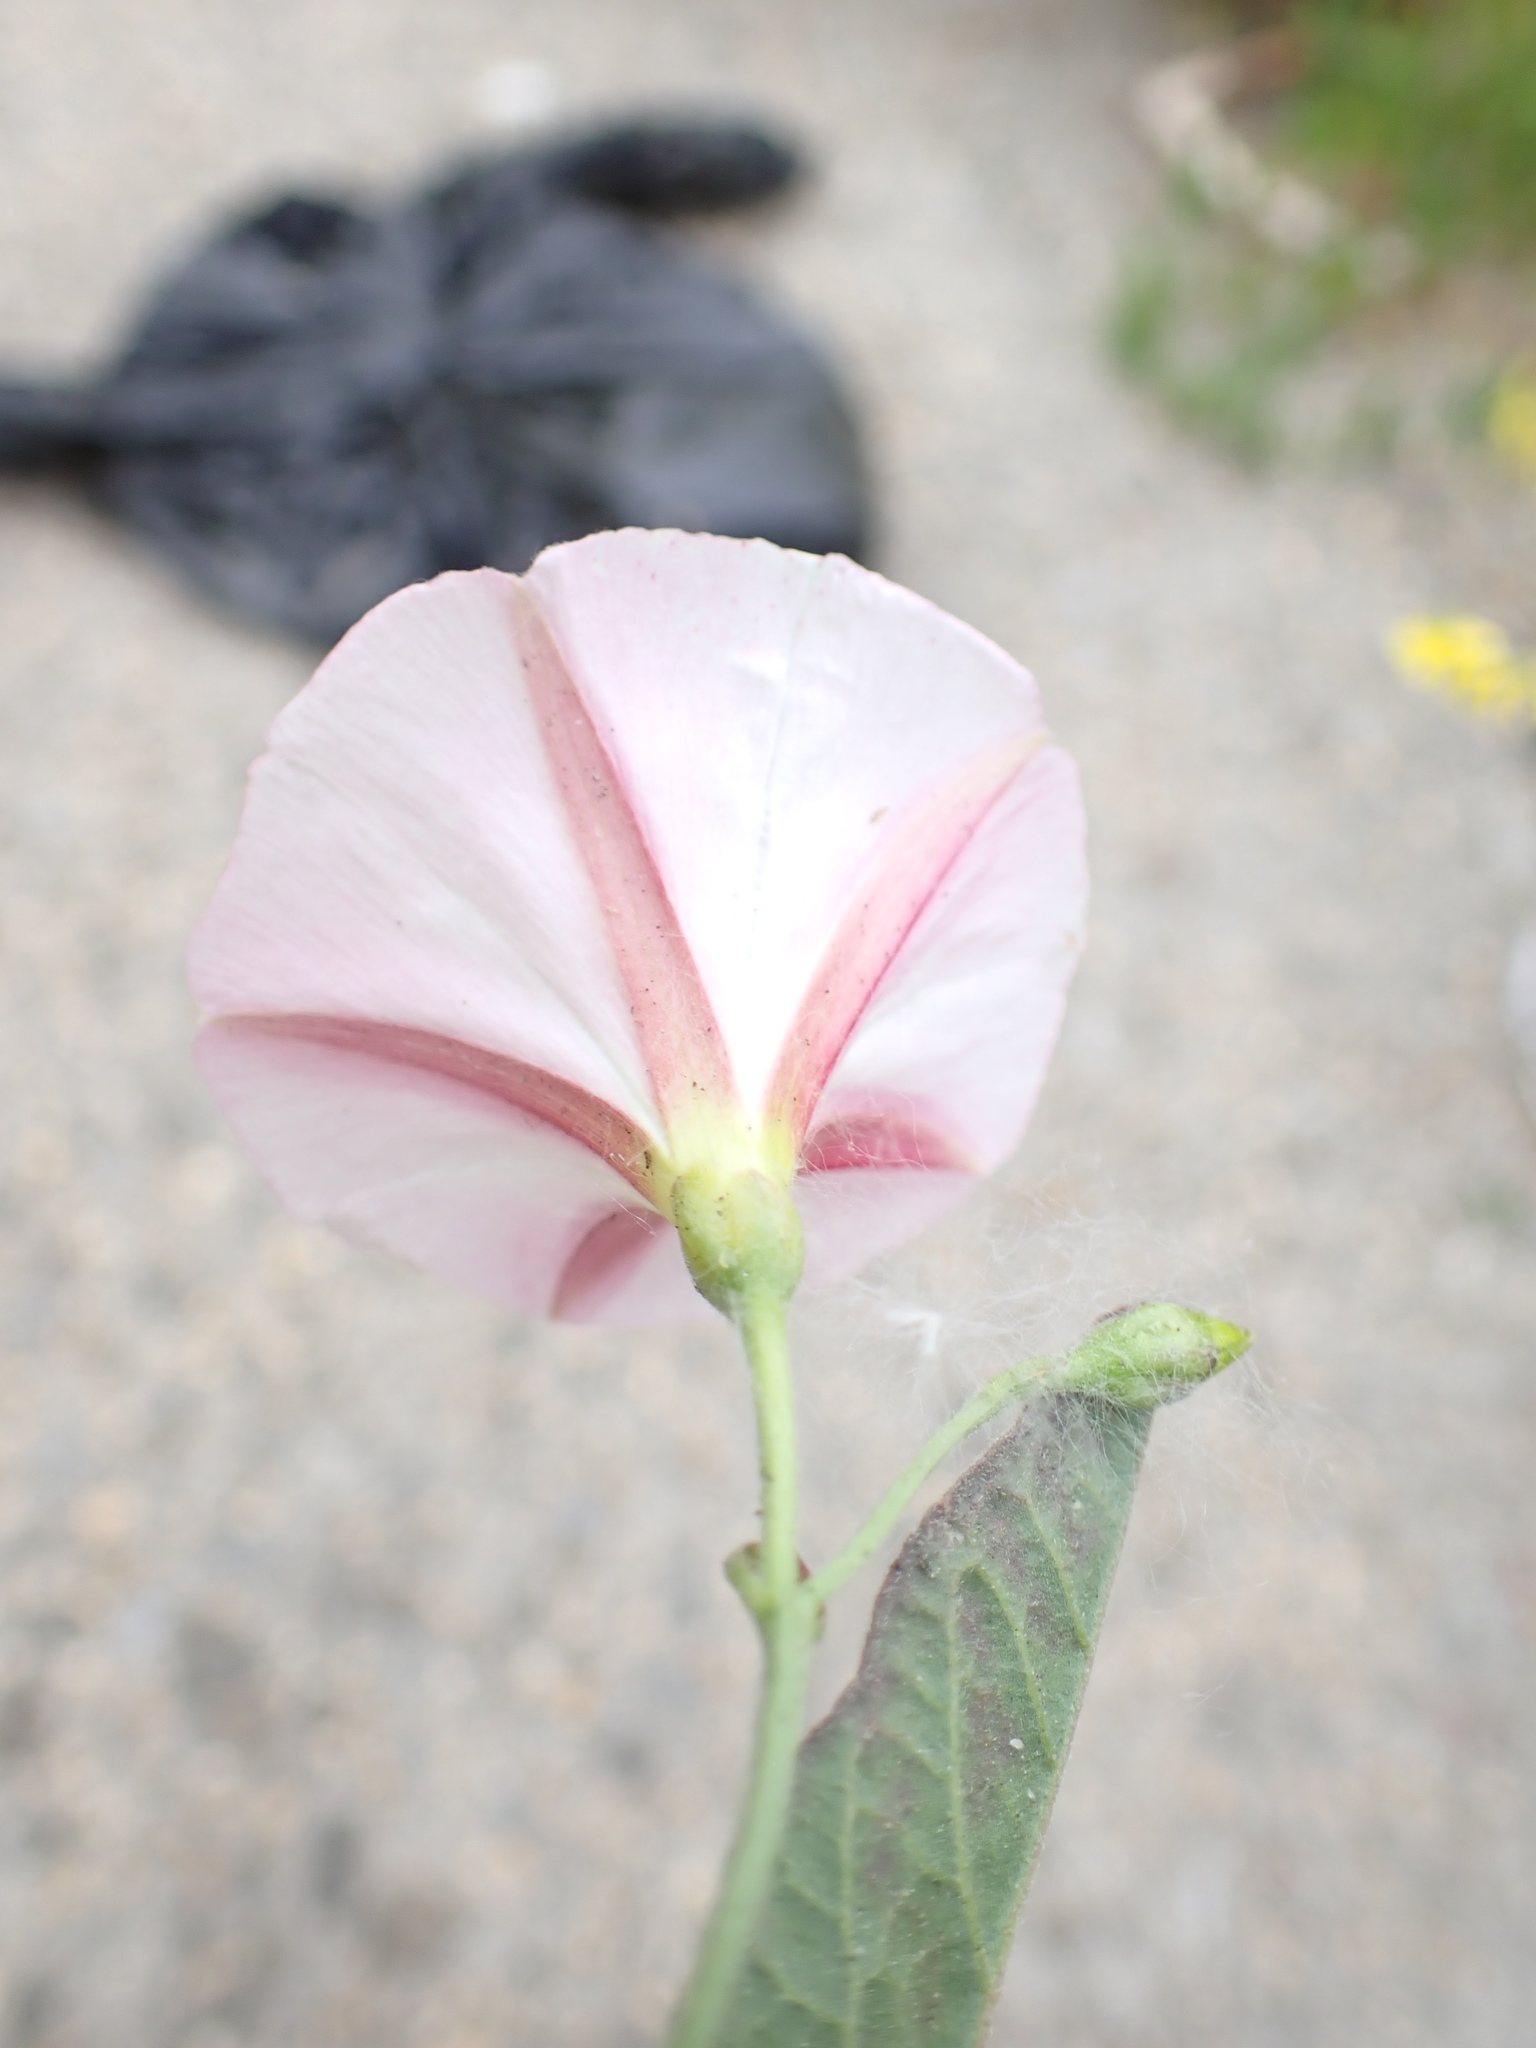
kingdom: Plantae
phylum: Tracheophyta
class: Magnoliopsida
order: Solanales
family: Convolvulaceae
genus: Convolvulus
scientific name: Convolvulus arvensis
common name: Field bindweed
